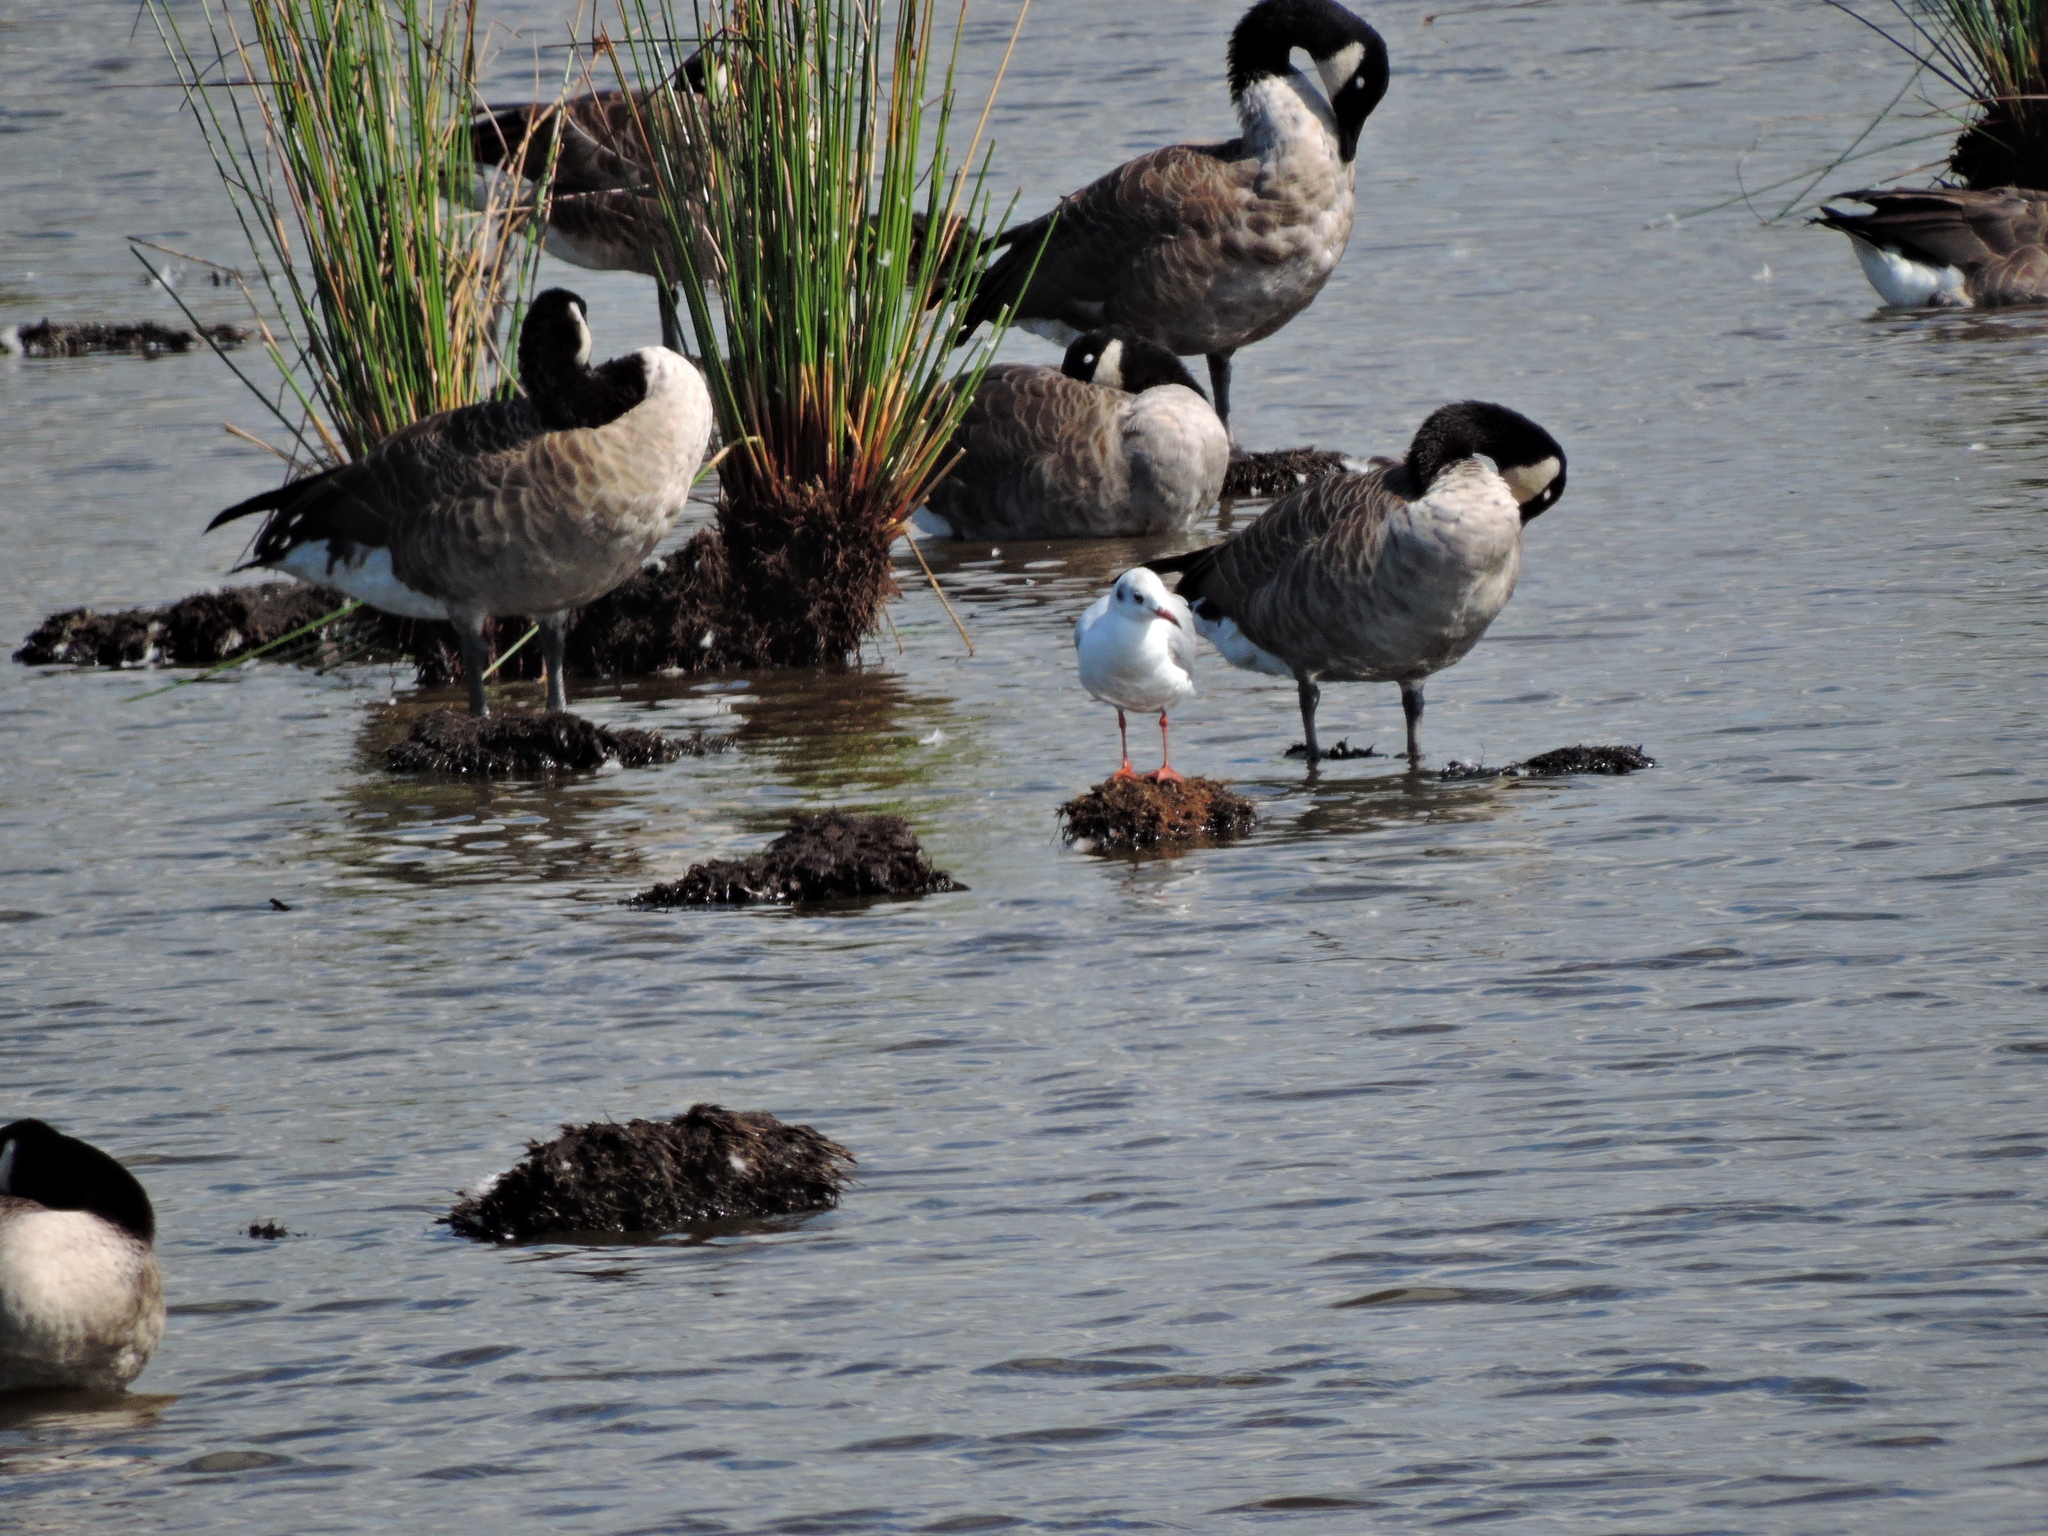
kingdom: Animalia
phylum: Chordata
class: Aves
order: Charadriiformes
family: Laridae
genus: Chroicocephalus
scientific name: Chroicocephalus ridibundus
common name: Black-headed gull
